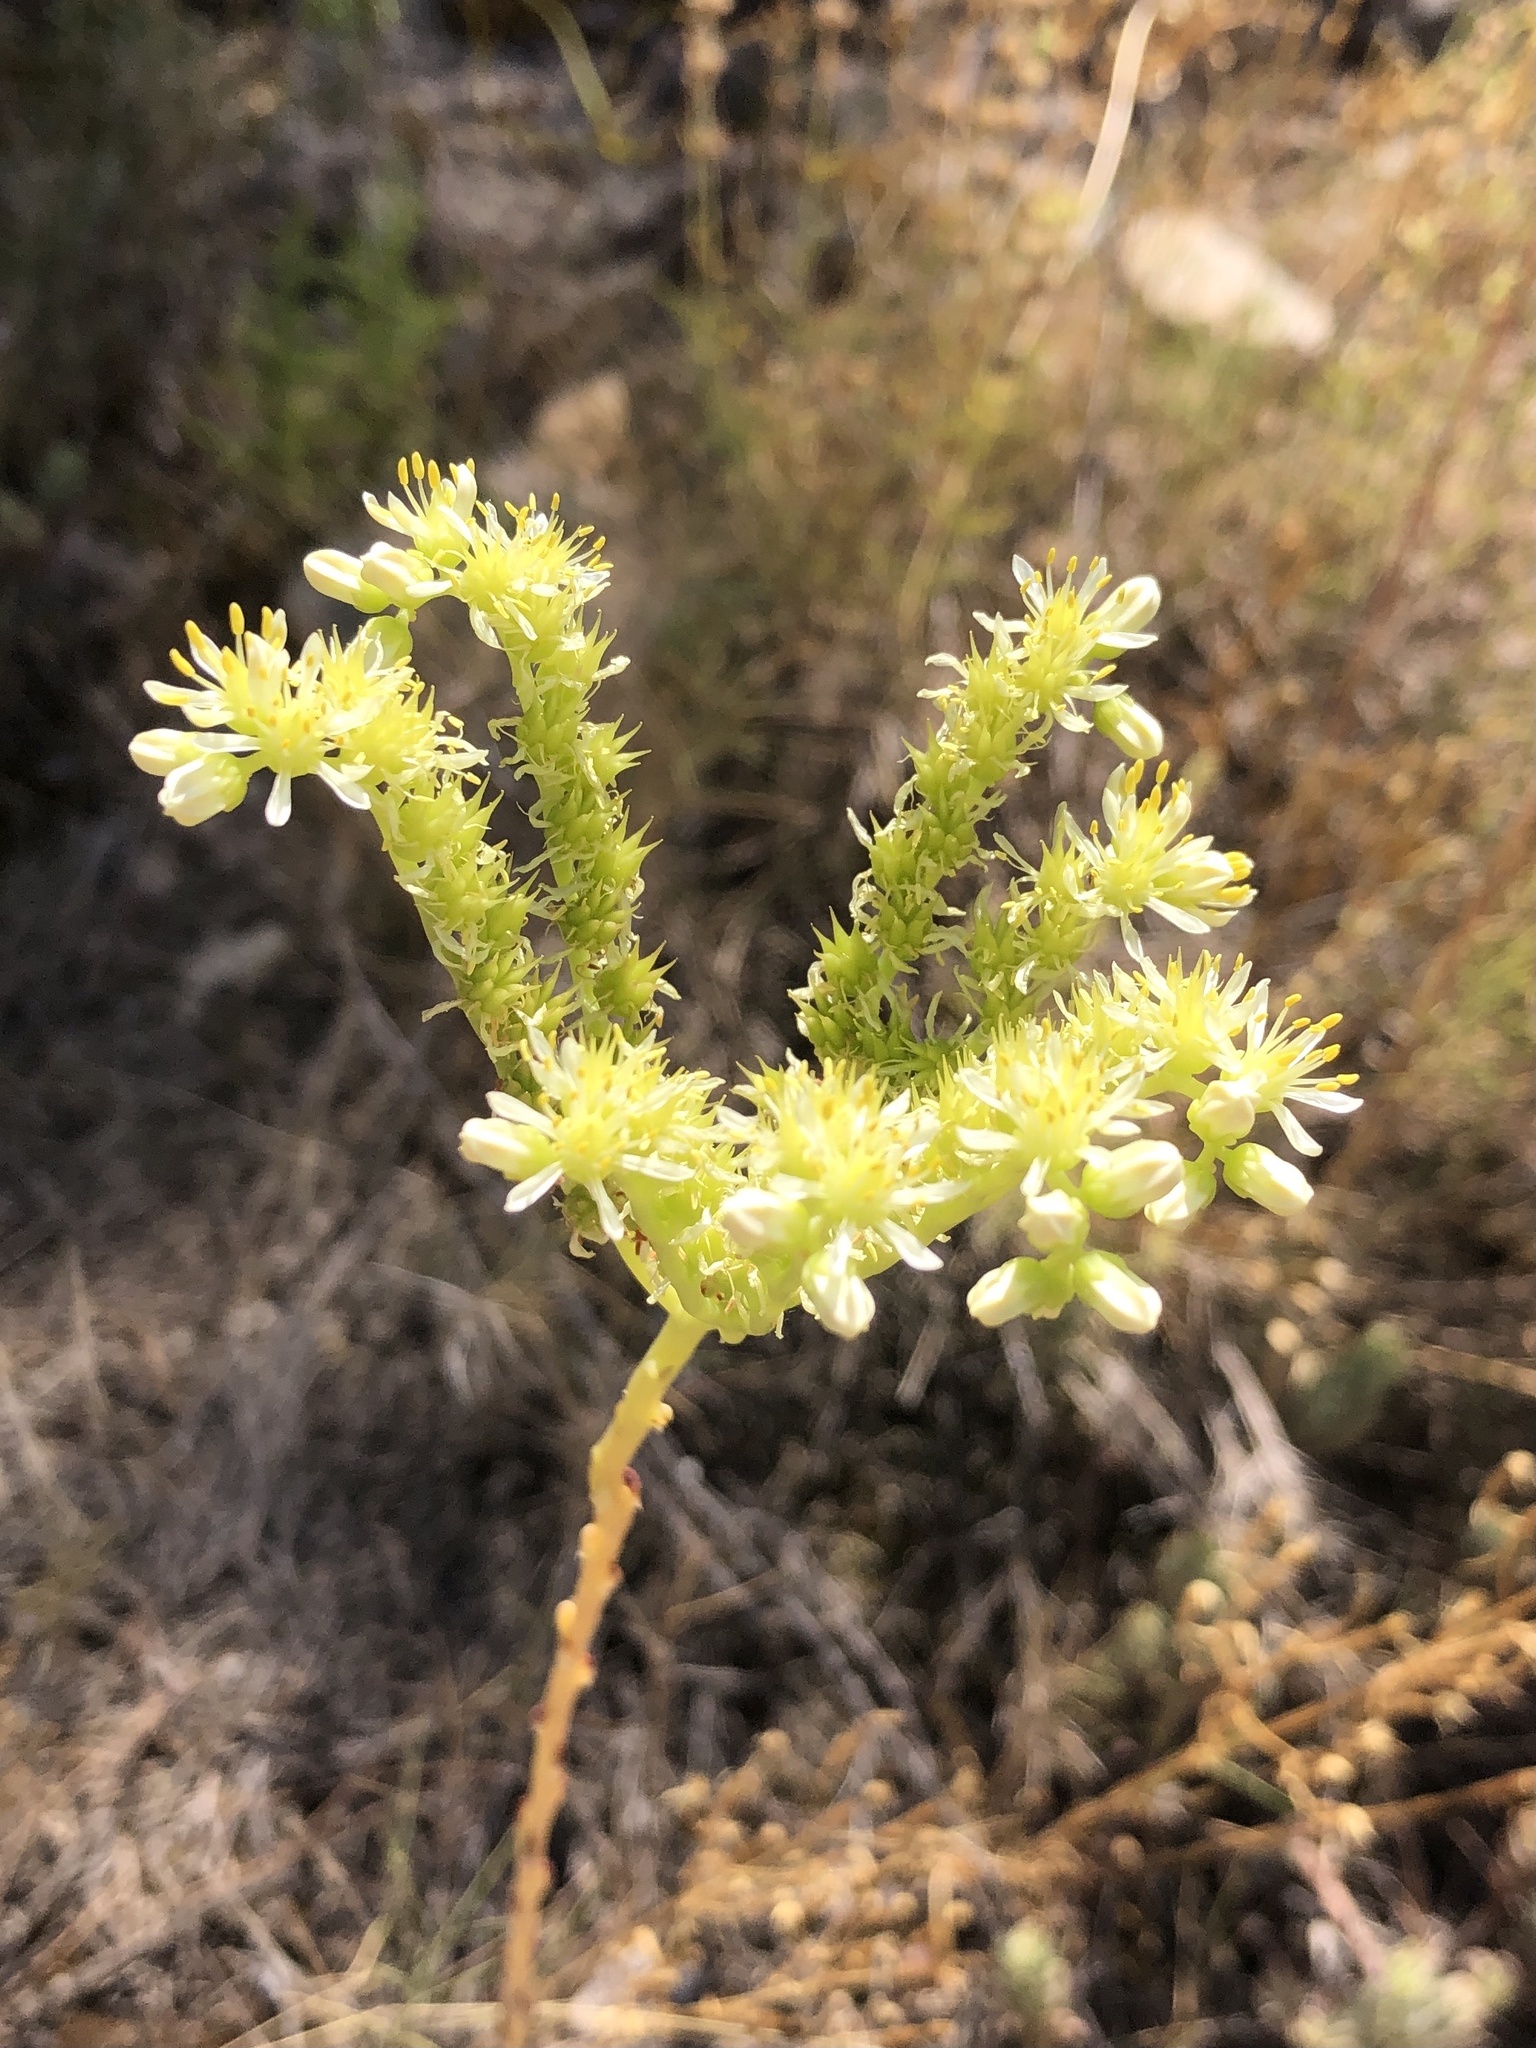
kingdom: Plantae
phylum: Tracheophyta
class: Magnoliopsida
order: Saxifragales
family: Crassulaceae
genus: Petrosedum
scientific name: Petrosedum sediforme
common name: Pale stonecrop
